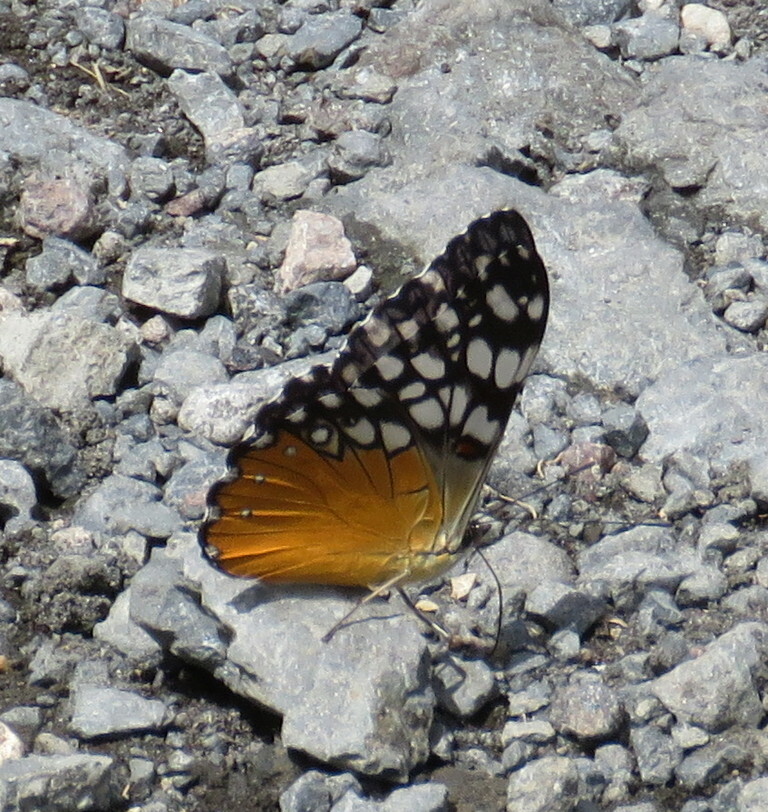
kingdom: Animalia
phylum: Arthropoda
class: Insecta
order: Lepidoptera
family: Nymphalidae
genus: Hamadryas
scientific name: Hamadryas fornax
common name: Orange cracker
